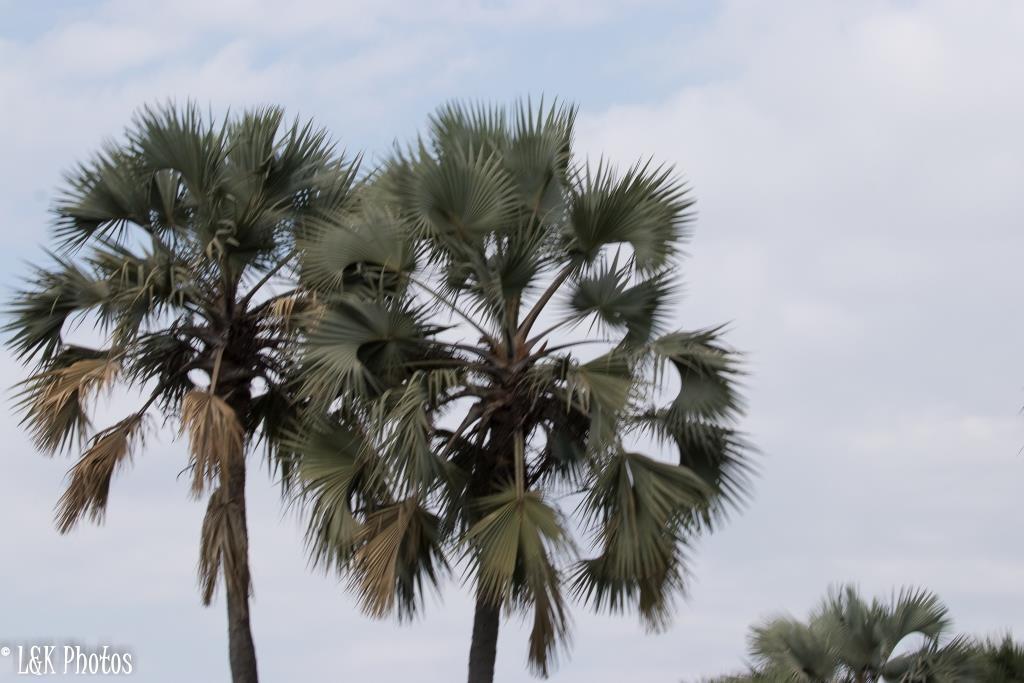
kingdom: Plantae
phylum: Tracheophyta
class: Liliopsida
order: Arecales
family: Arecaceae
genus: Hyphaene
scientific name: Hyphaene petersiana
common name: African ivory nut palm
